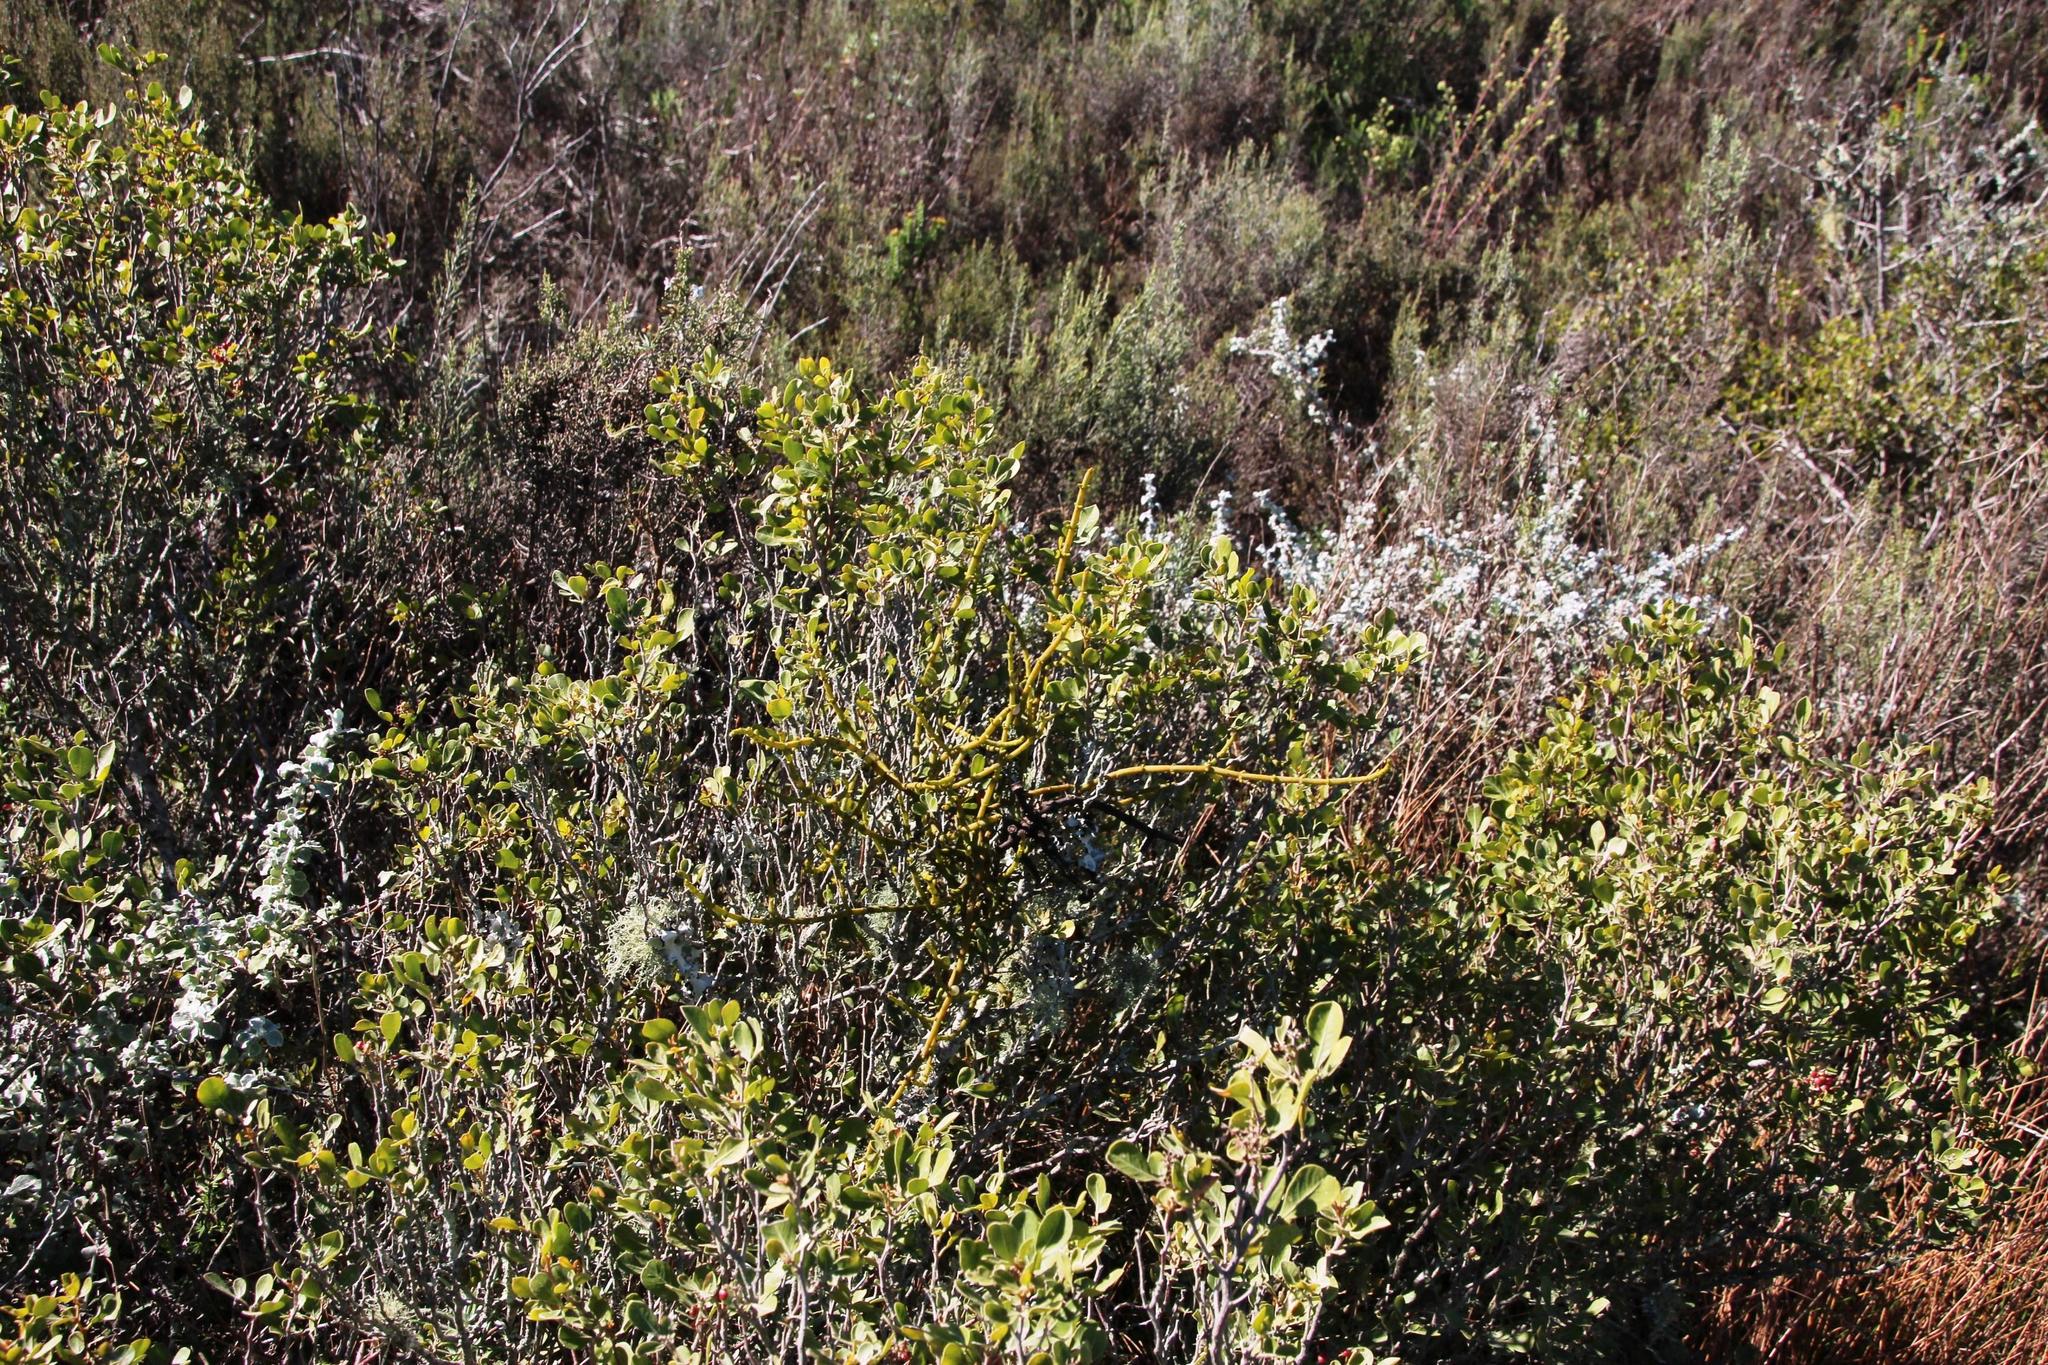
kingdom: Plantae
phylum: Tracheophyta
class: Magnoliopsida
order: Santalales
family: Viscaceae
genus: Viscum
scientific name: Viscum capense
